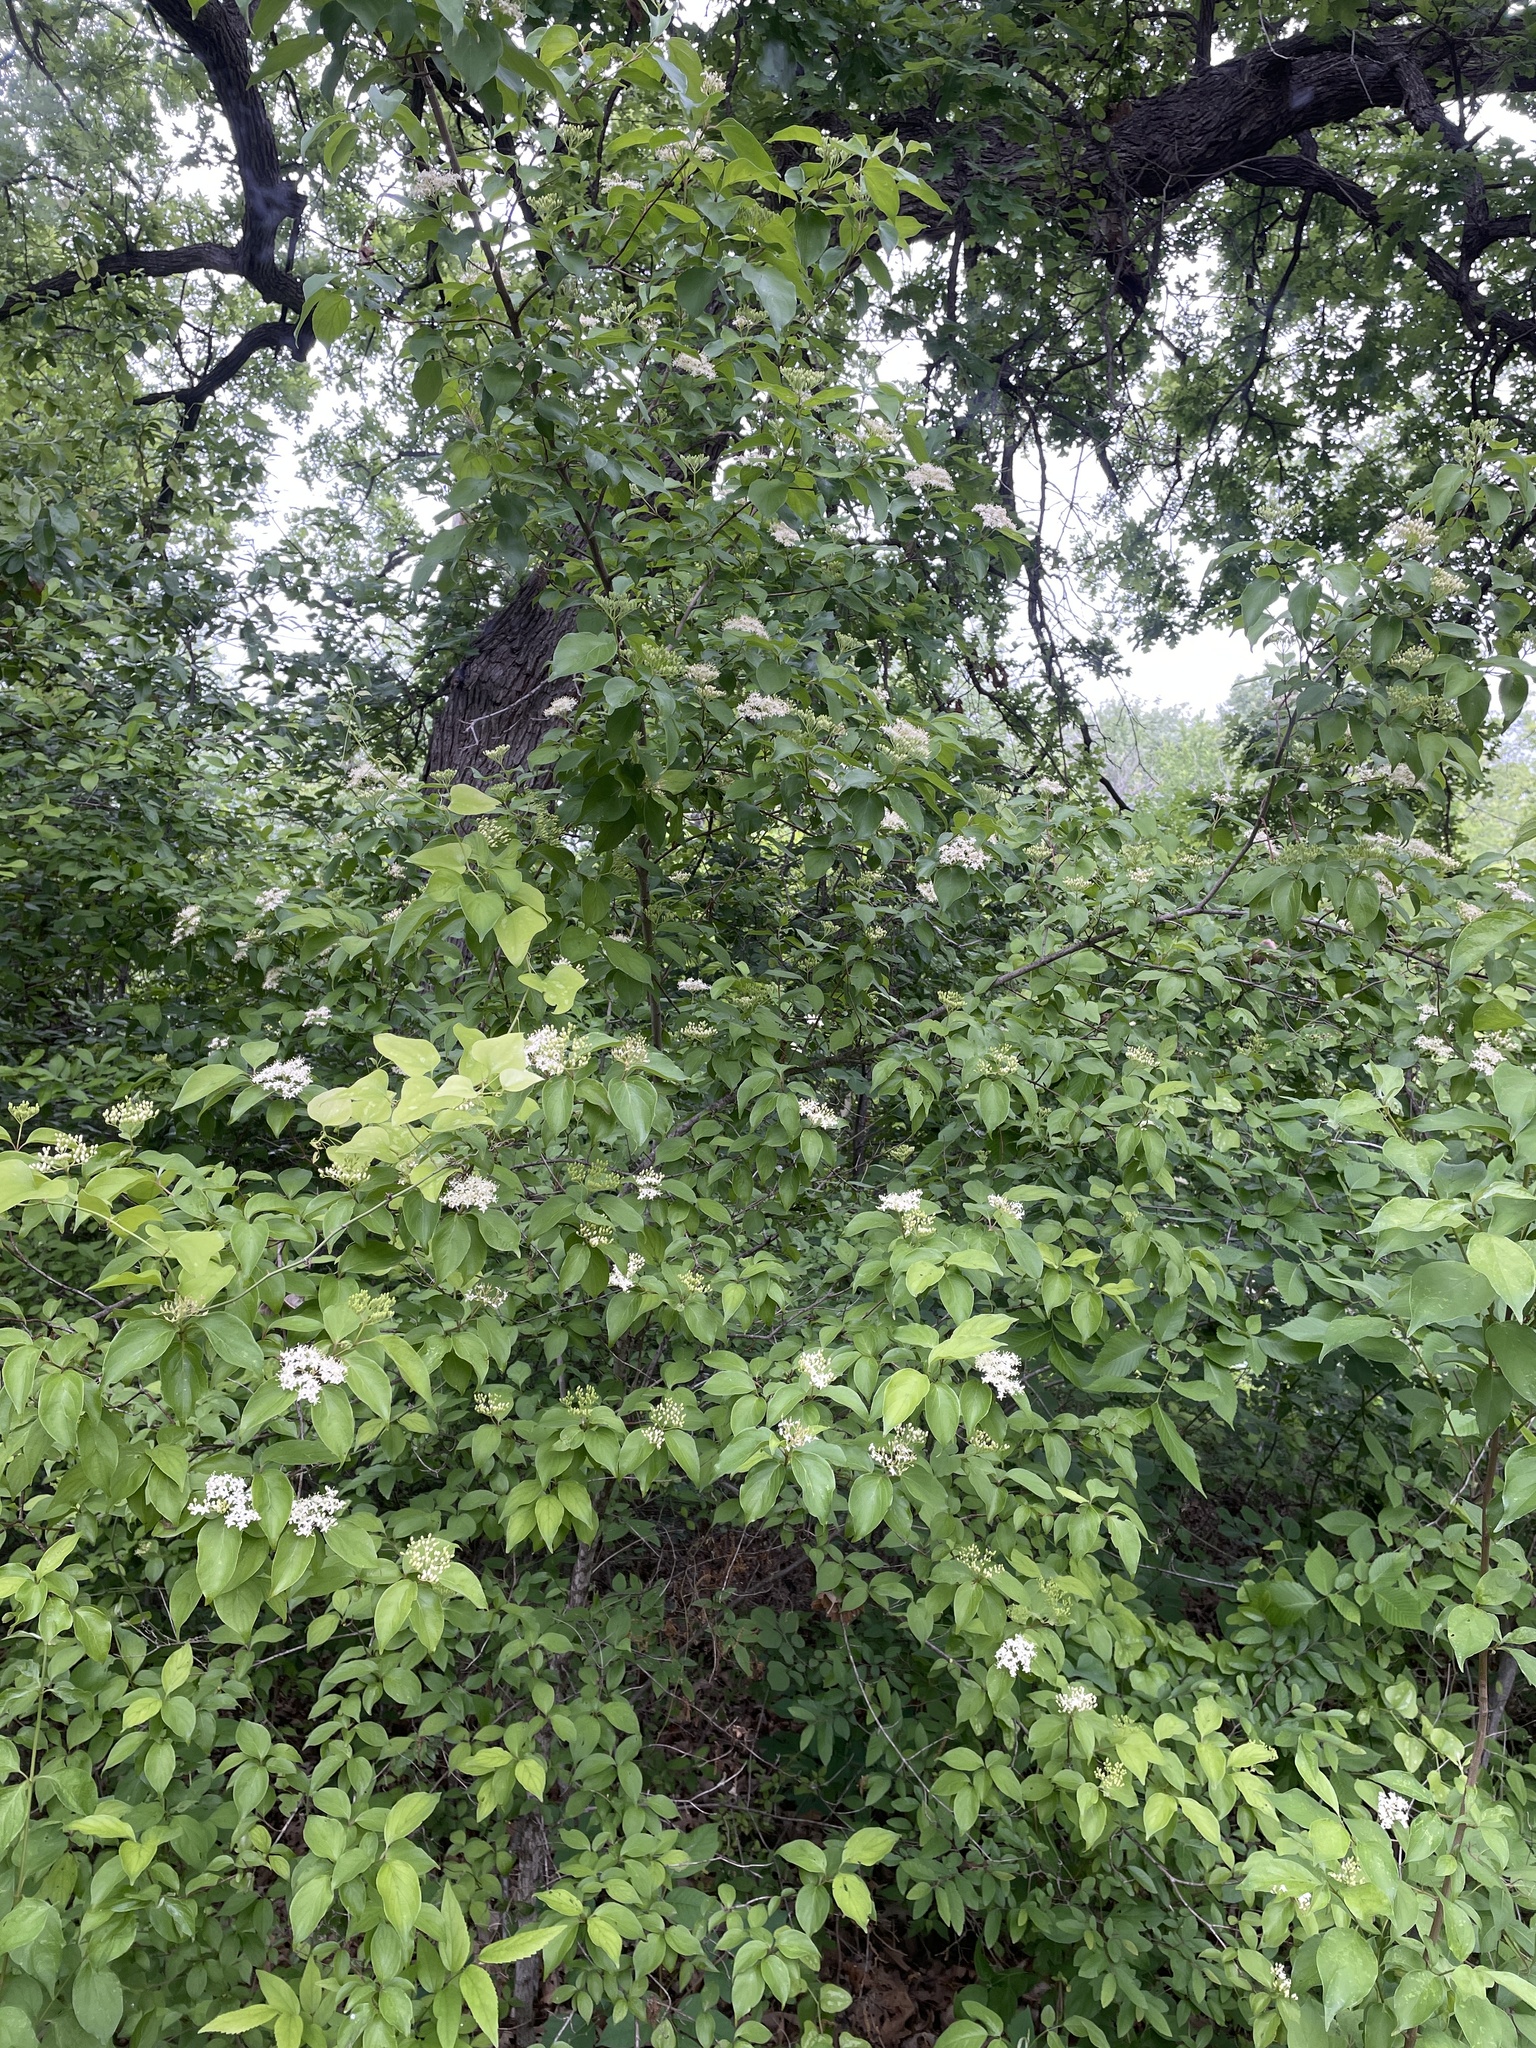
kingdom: Plantae
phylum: Tracheophyta
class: Magnoliopsida
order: Cornales
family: Cornaceae
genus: Cornus
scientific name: Cornus drummondii
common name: Rough-leaf dogwood
